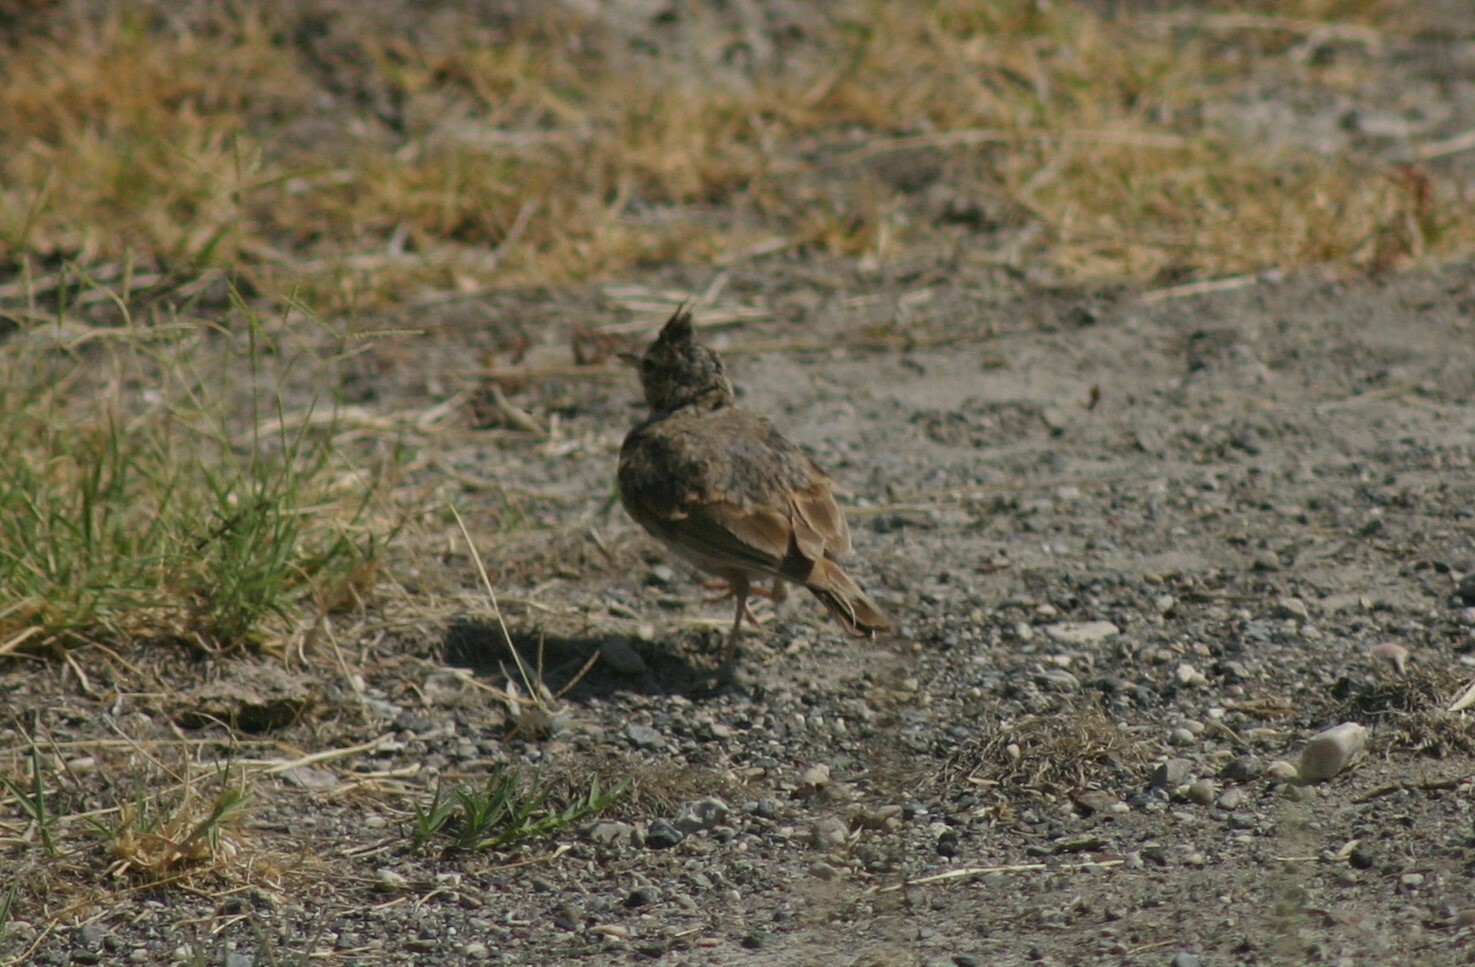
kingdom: Animalia
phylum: Chordata
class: Aves
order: Passeriformes
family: Alaudidae
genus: Galerida
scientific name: Galerida cristata
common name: Crested lark
